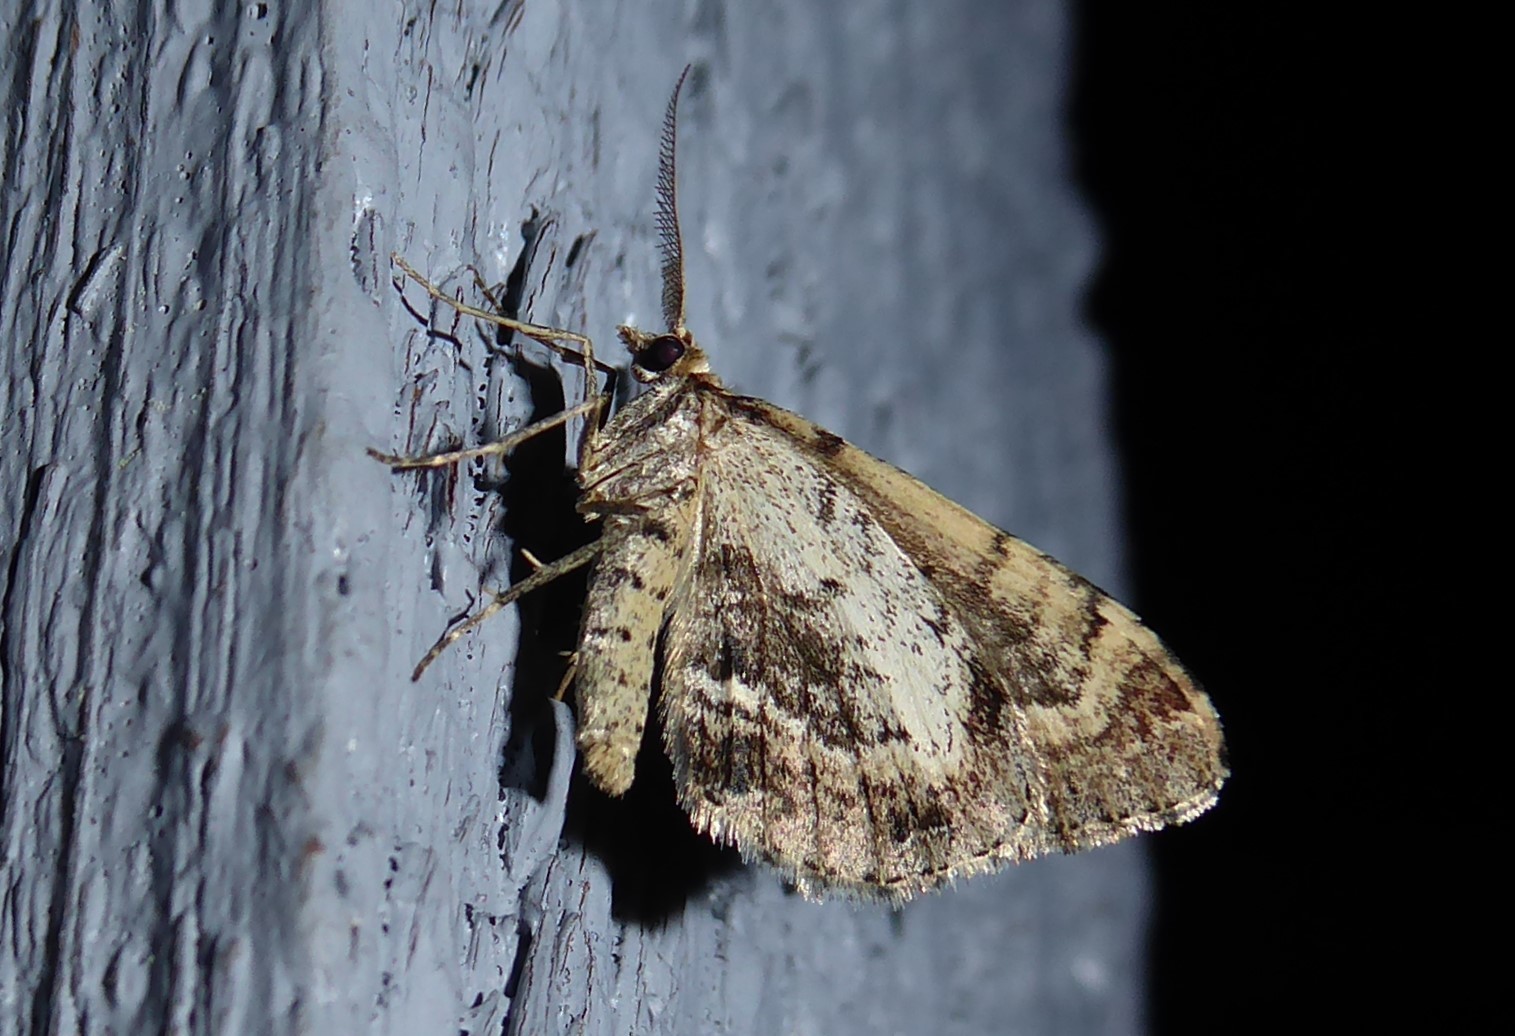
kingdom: Animalia
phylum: Arthropoda
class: Insecta
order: Lepidoptera
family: Geometridae
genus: Asaphodes
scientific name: Asaphodes aegrota
